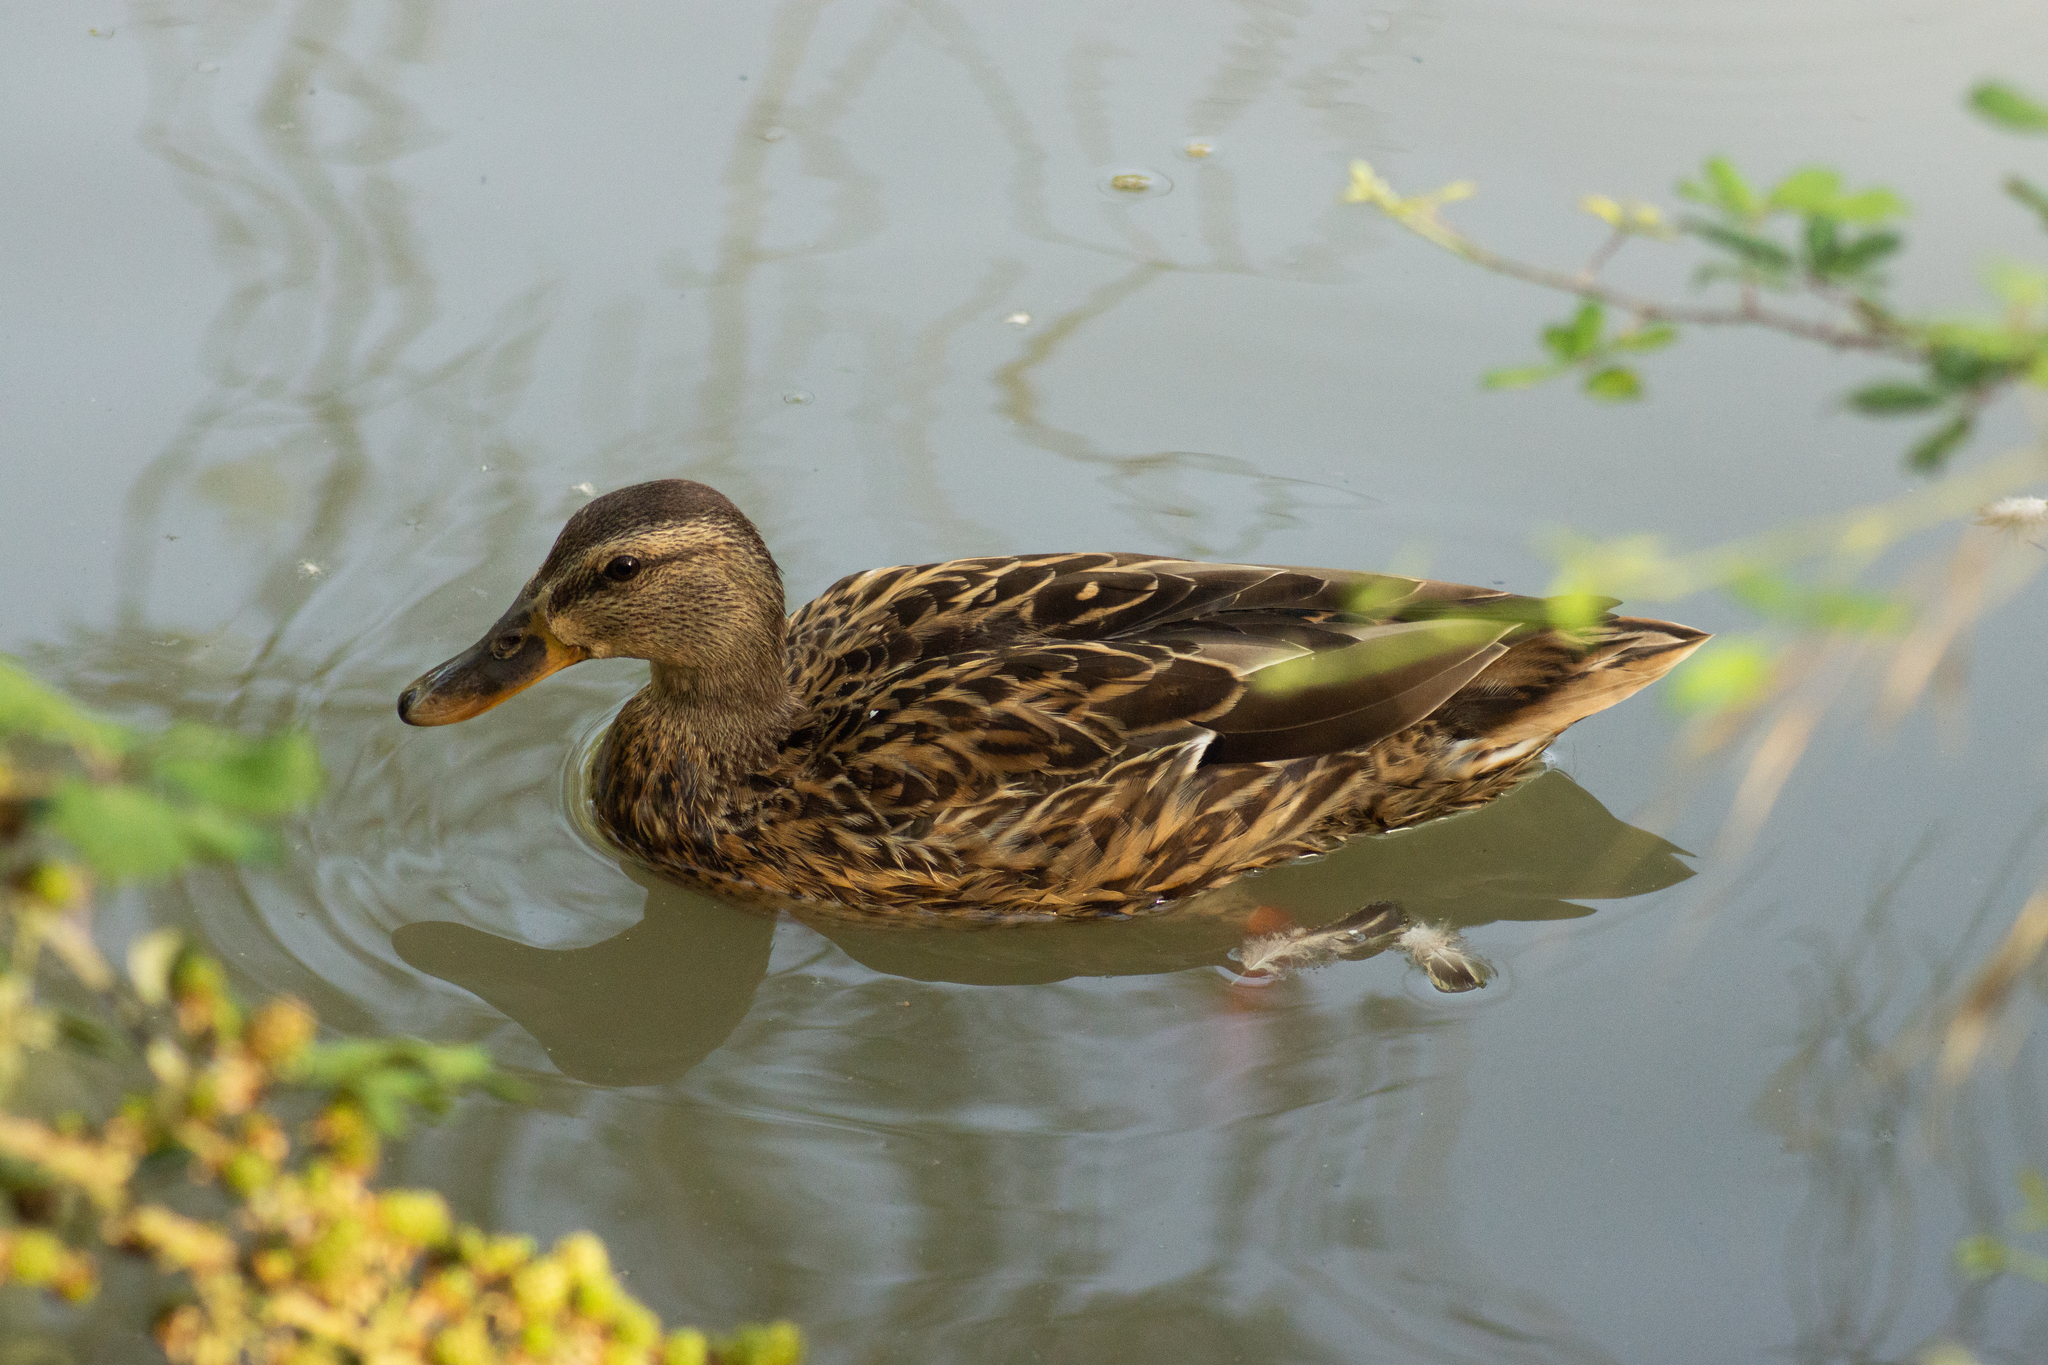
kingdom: Animalia
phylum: Chordata
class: Aves
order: Anseriformes
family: Anatidae
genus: Anas
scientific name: Anas platyrhynchos
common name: Mallard
